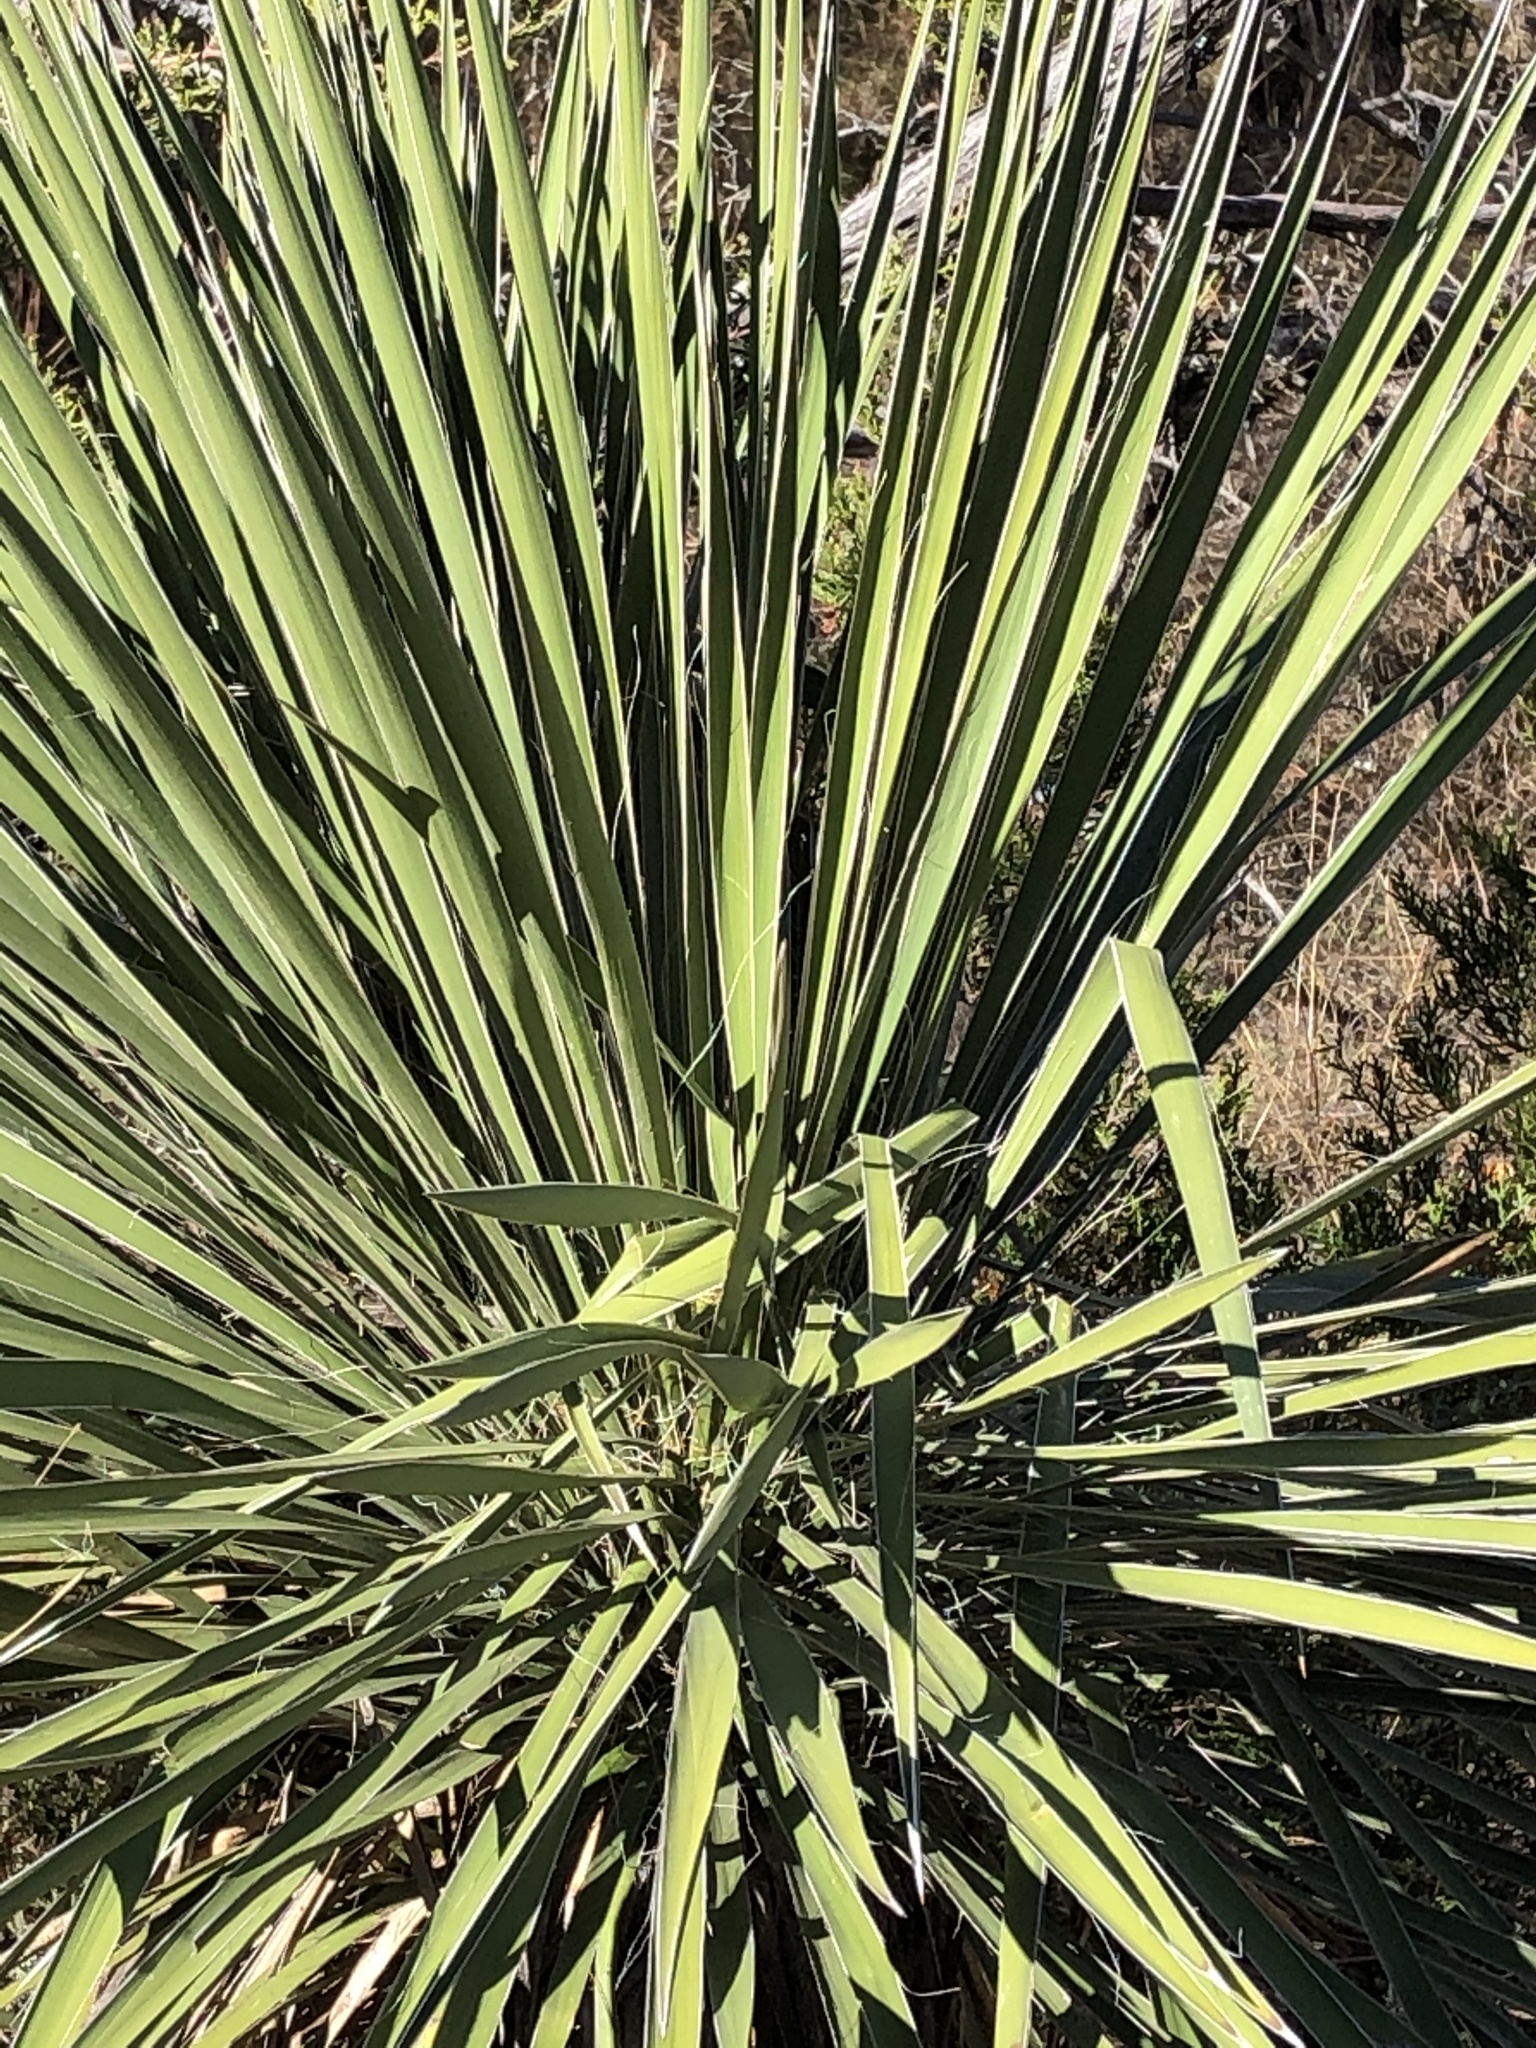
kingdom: Plantae
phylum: Tracheophyta
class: Liliopsida
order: Asparagales
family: Asparagaceae
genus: Yucca
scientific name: Yucca constricta
